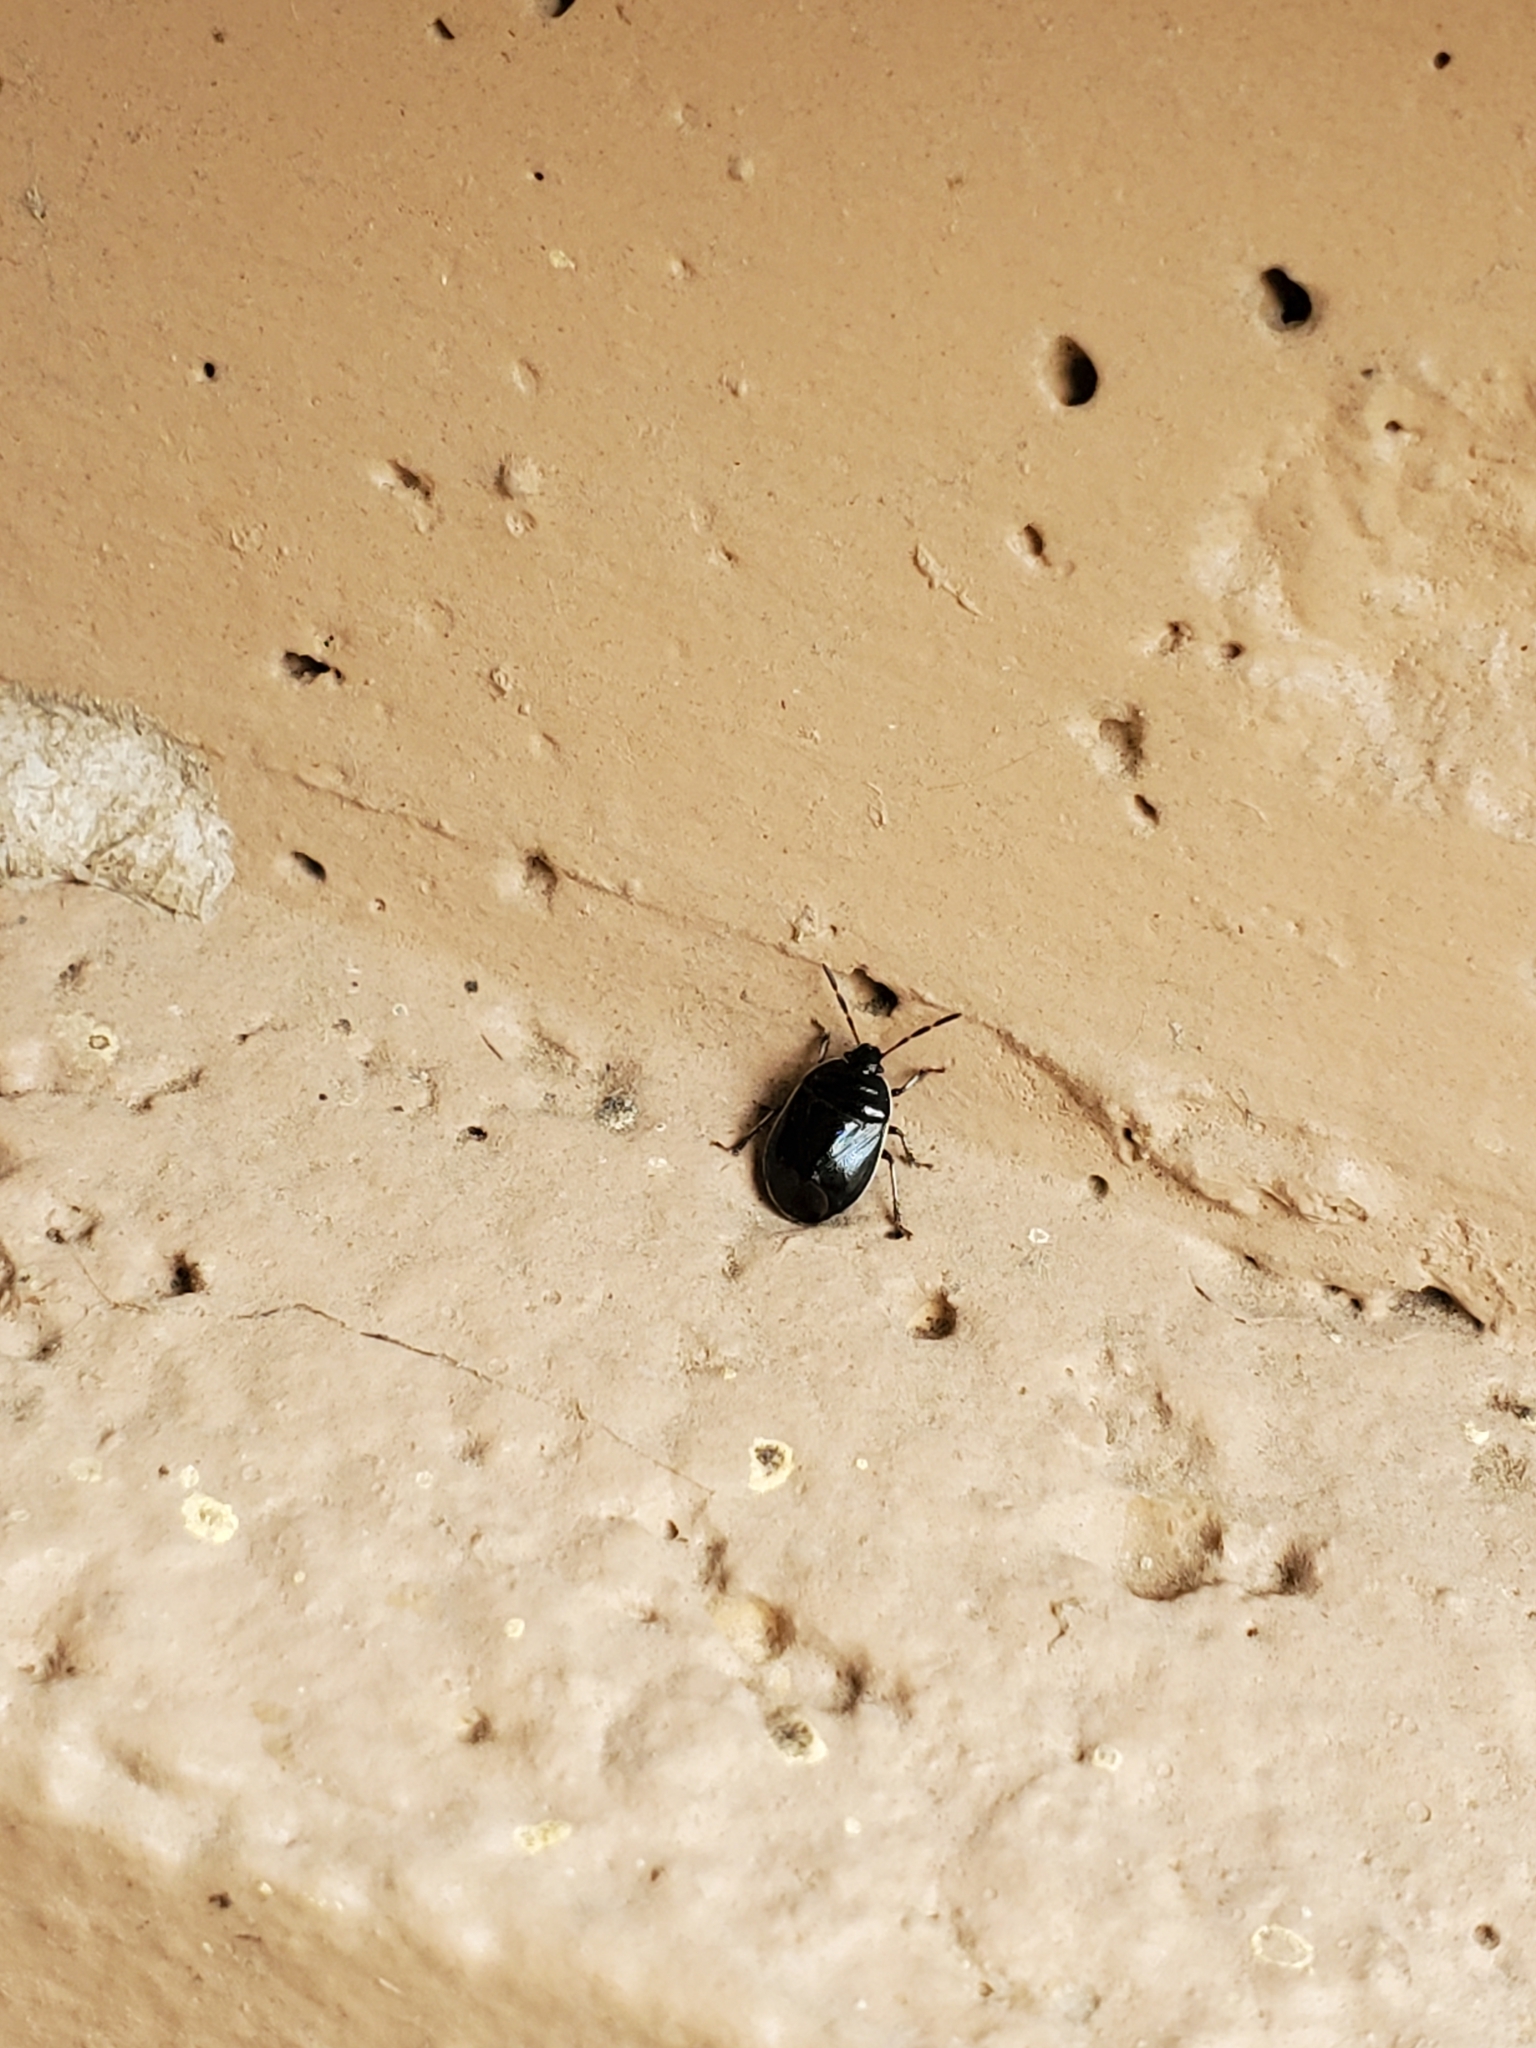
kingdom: Animalia
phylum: Arthropoda
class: Insecta
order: Hemiptera
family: Cydnidae
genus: Sehirus
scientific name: Sehirus cinctus
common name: White-margined burrower bug
